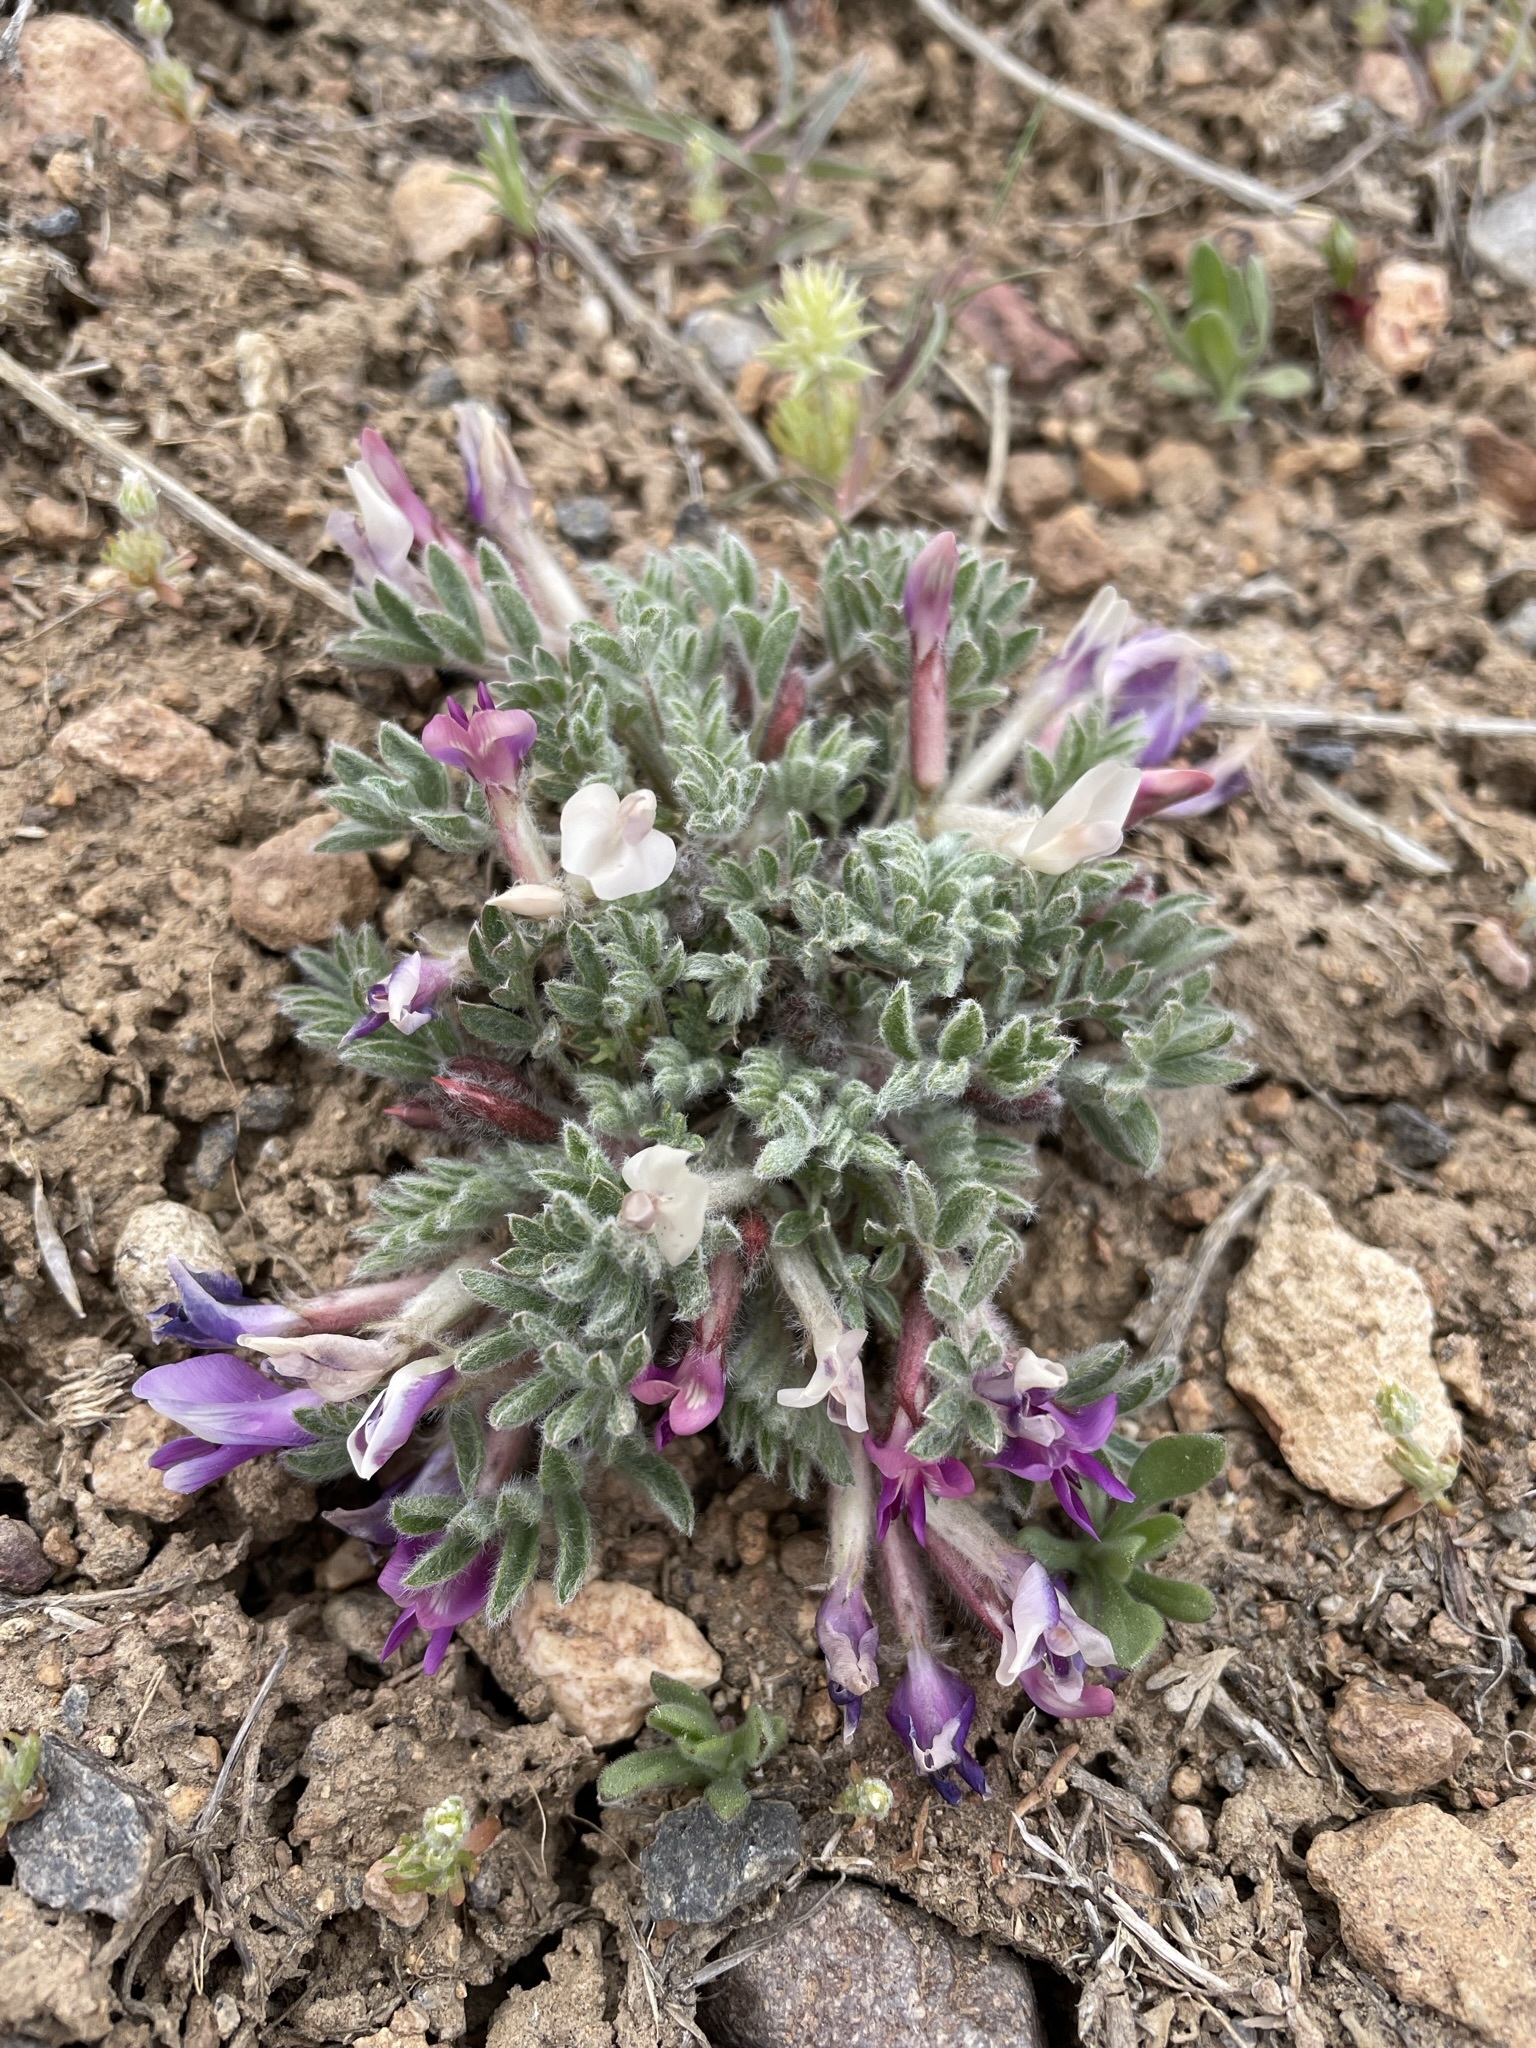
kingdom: Plantae
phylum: Tracheophyta
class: Magnoliopsida
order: Fabales
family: Fabaceae
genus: Astragalus
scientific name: Astragalus purshii
